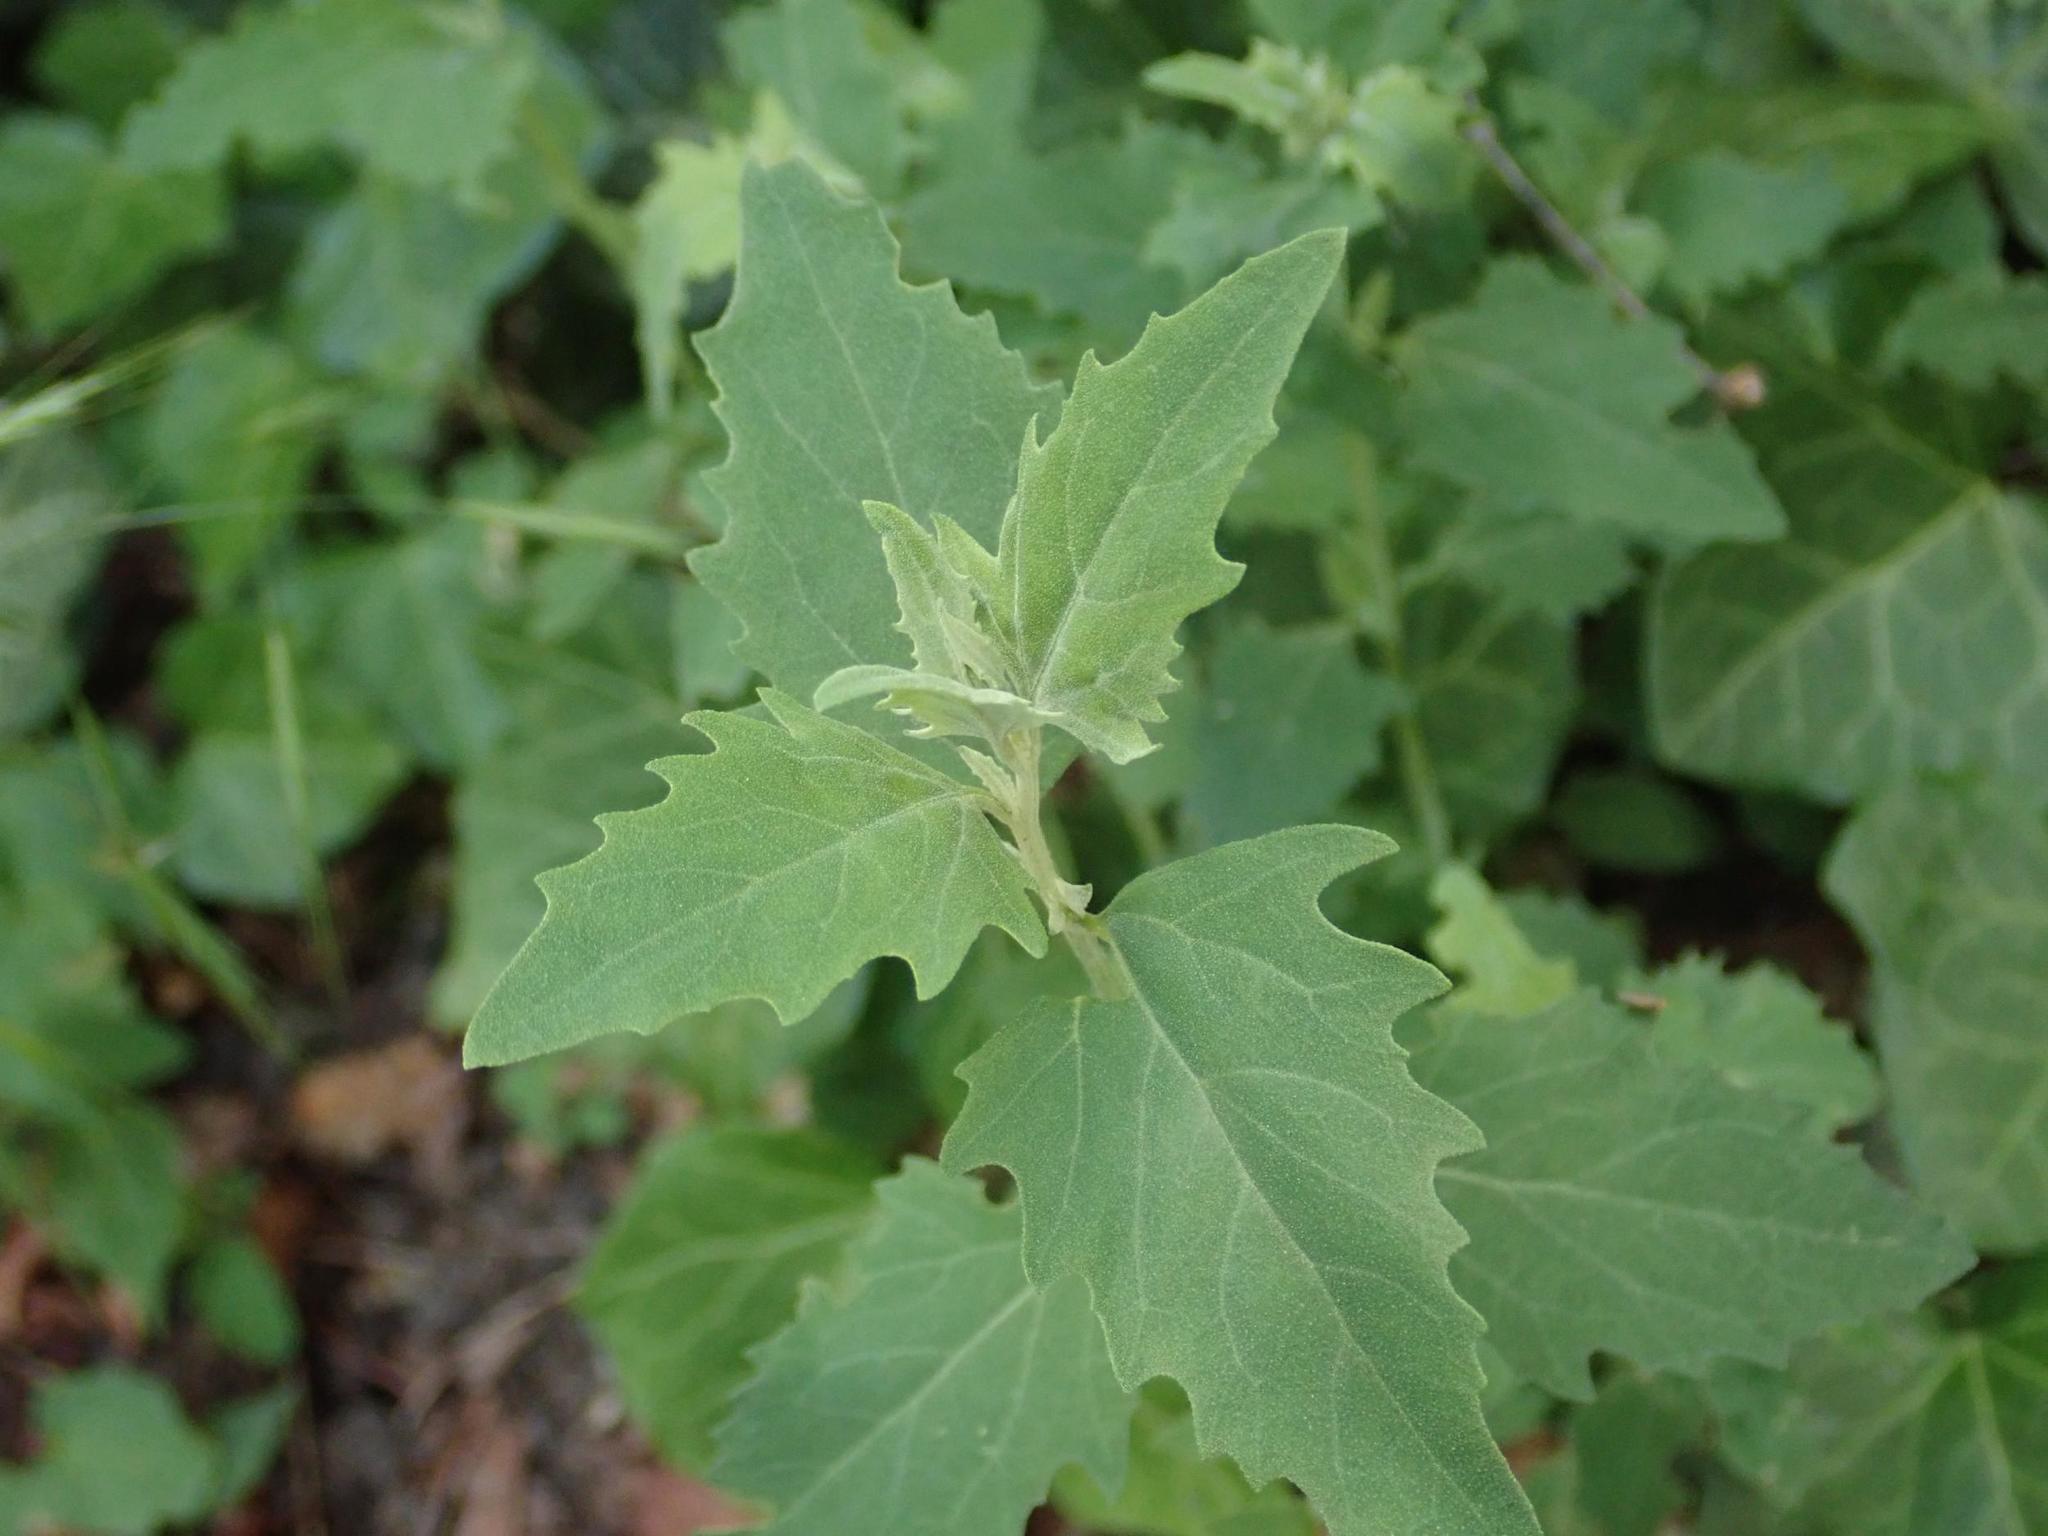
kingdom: Plantae
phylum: Tracheophyta
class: Magnoliopsida
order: Caryophyllales
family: Amaranthaceae
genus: Chenopodium
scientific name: Chenopodium album
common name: Fat-hen
